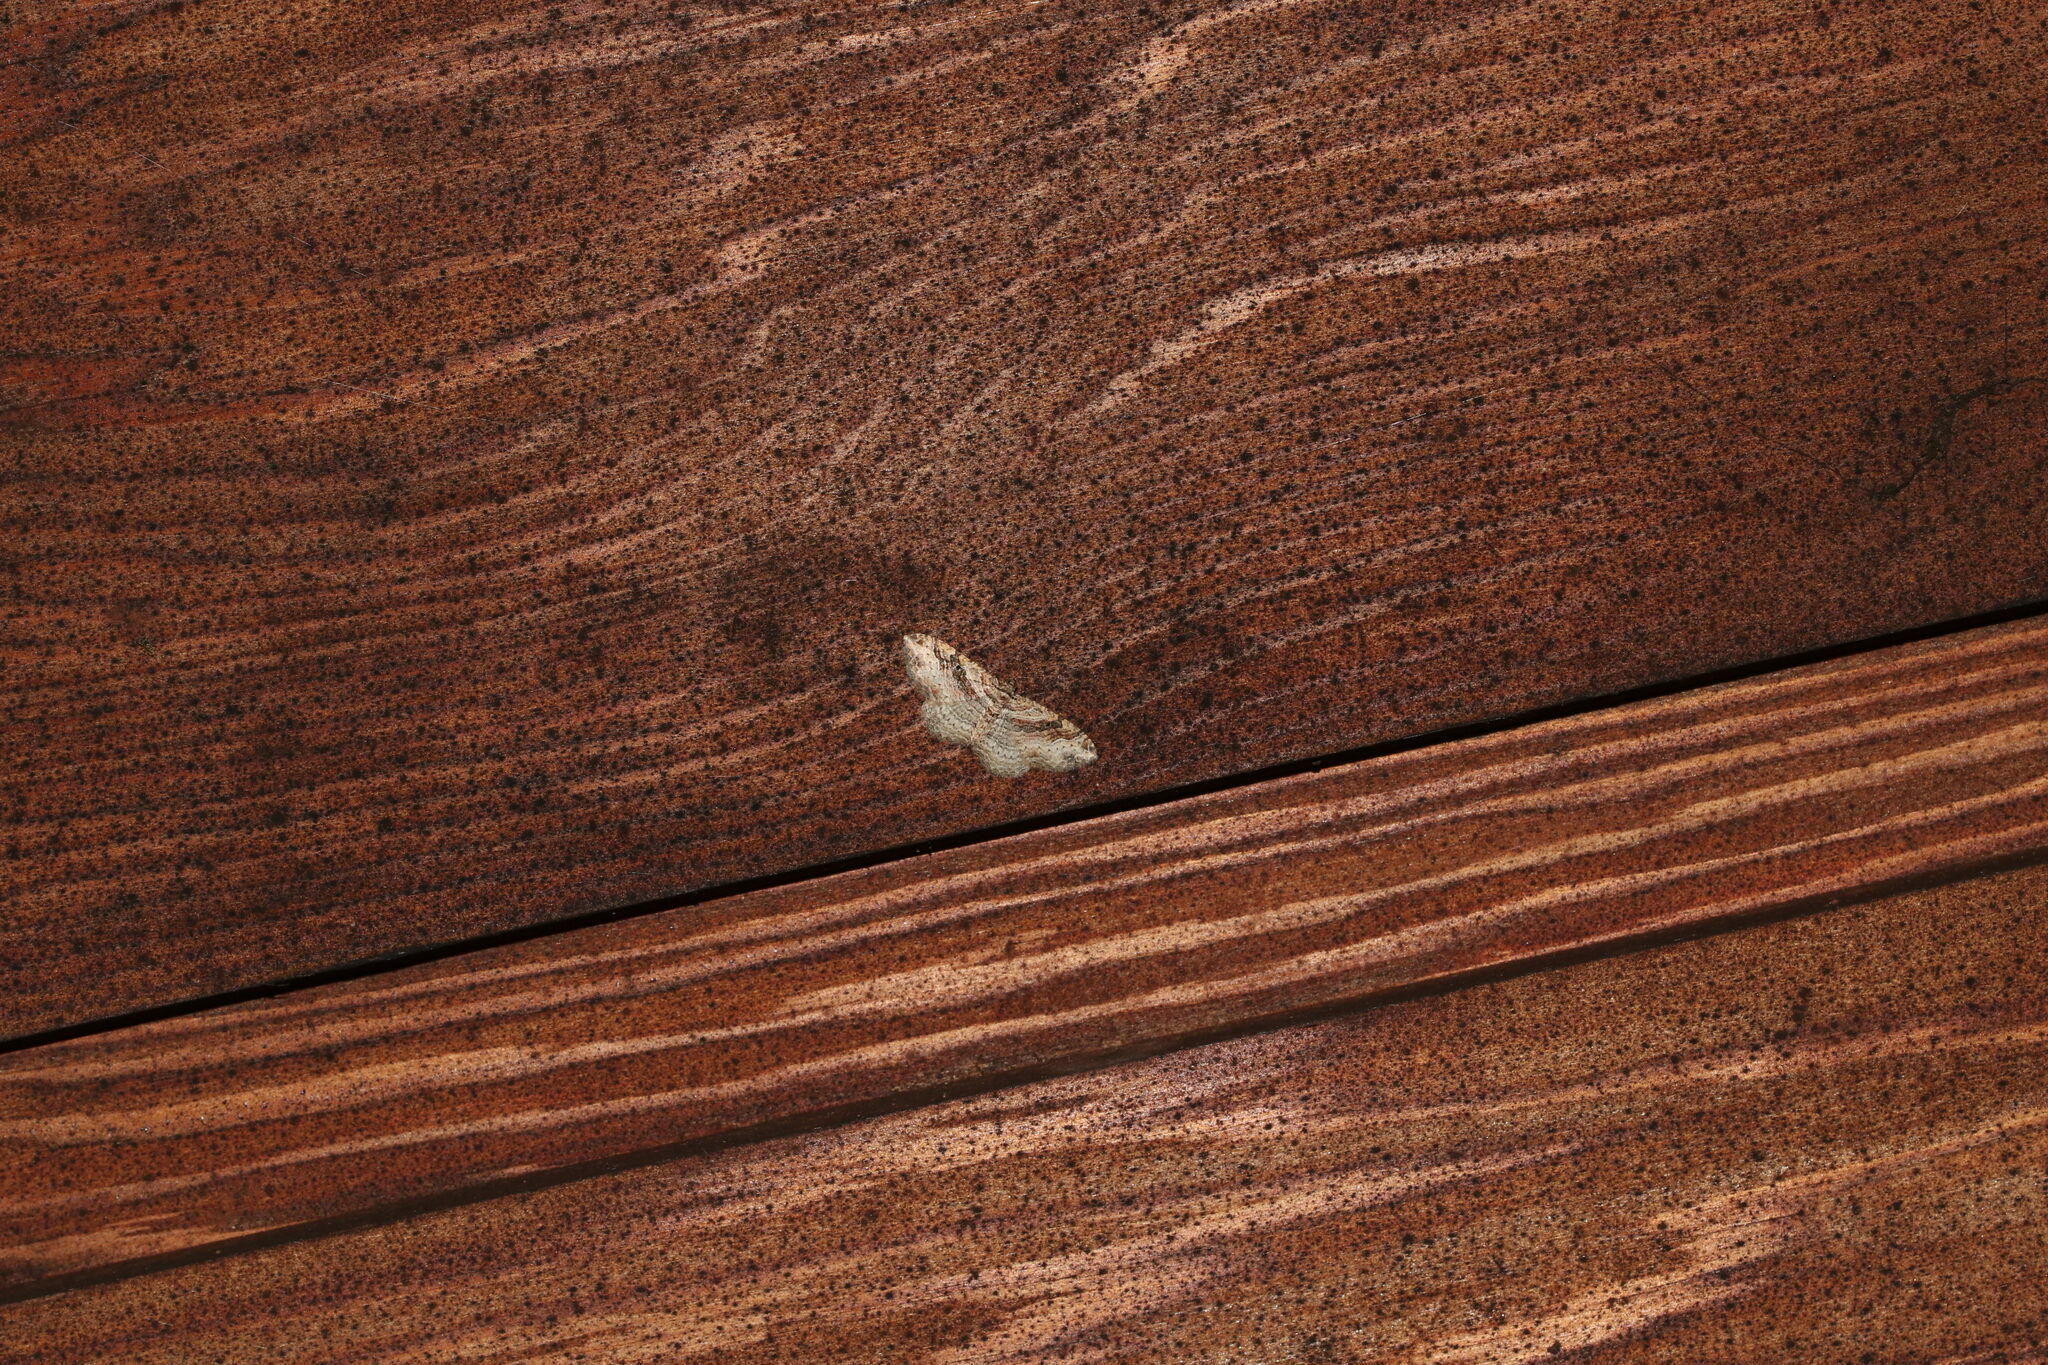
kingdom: Animalia
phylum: Arthropoda
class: Insecta
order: Lepidoptera
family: Geometridae
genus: Costaconvexa
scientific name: Costaconvexa centrostrigaria
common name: Bent-line carpet
